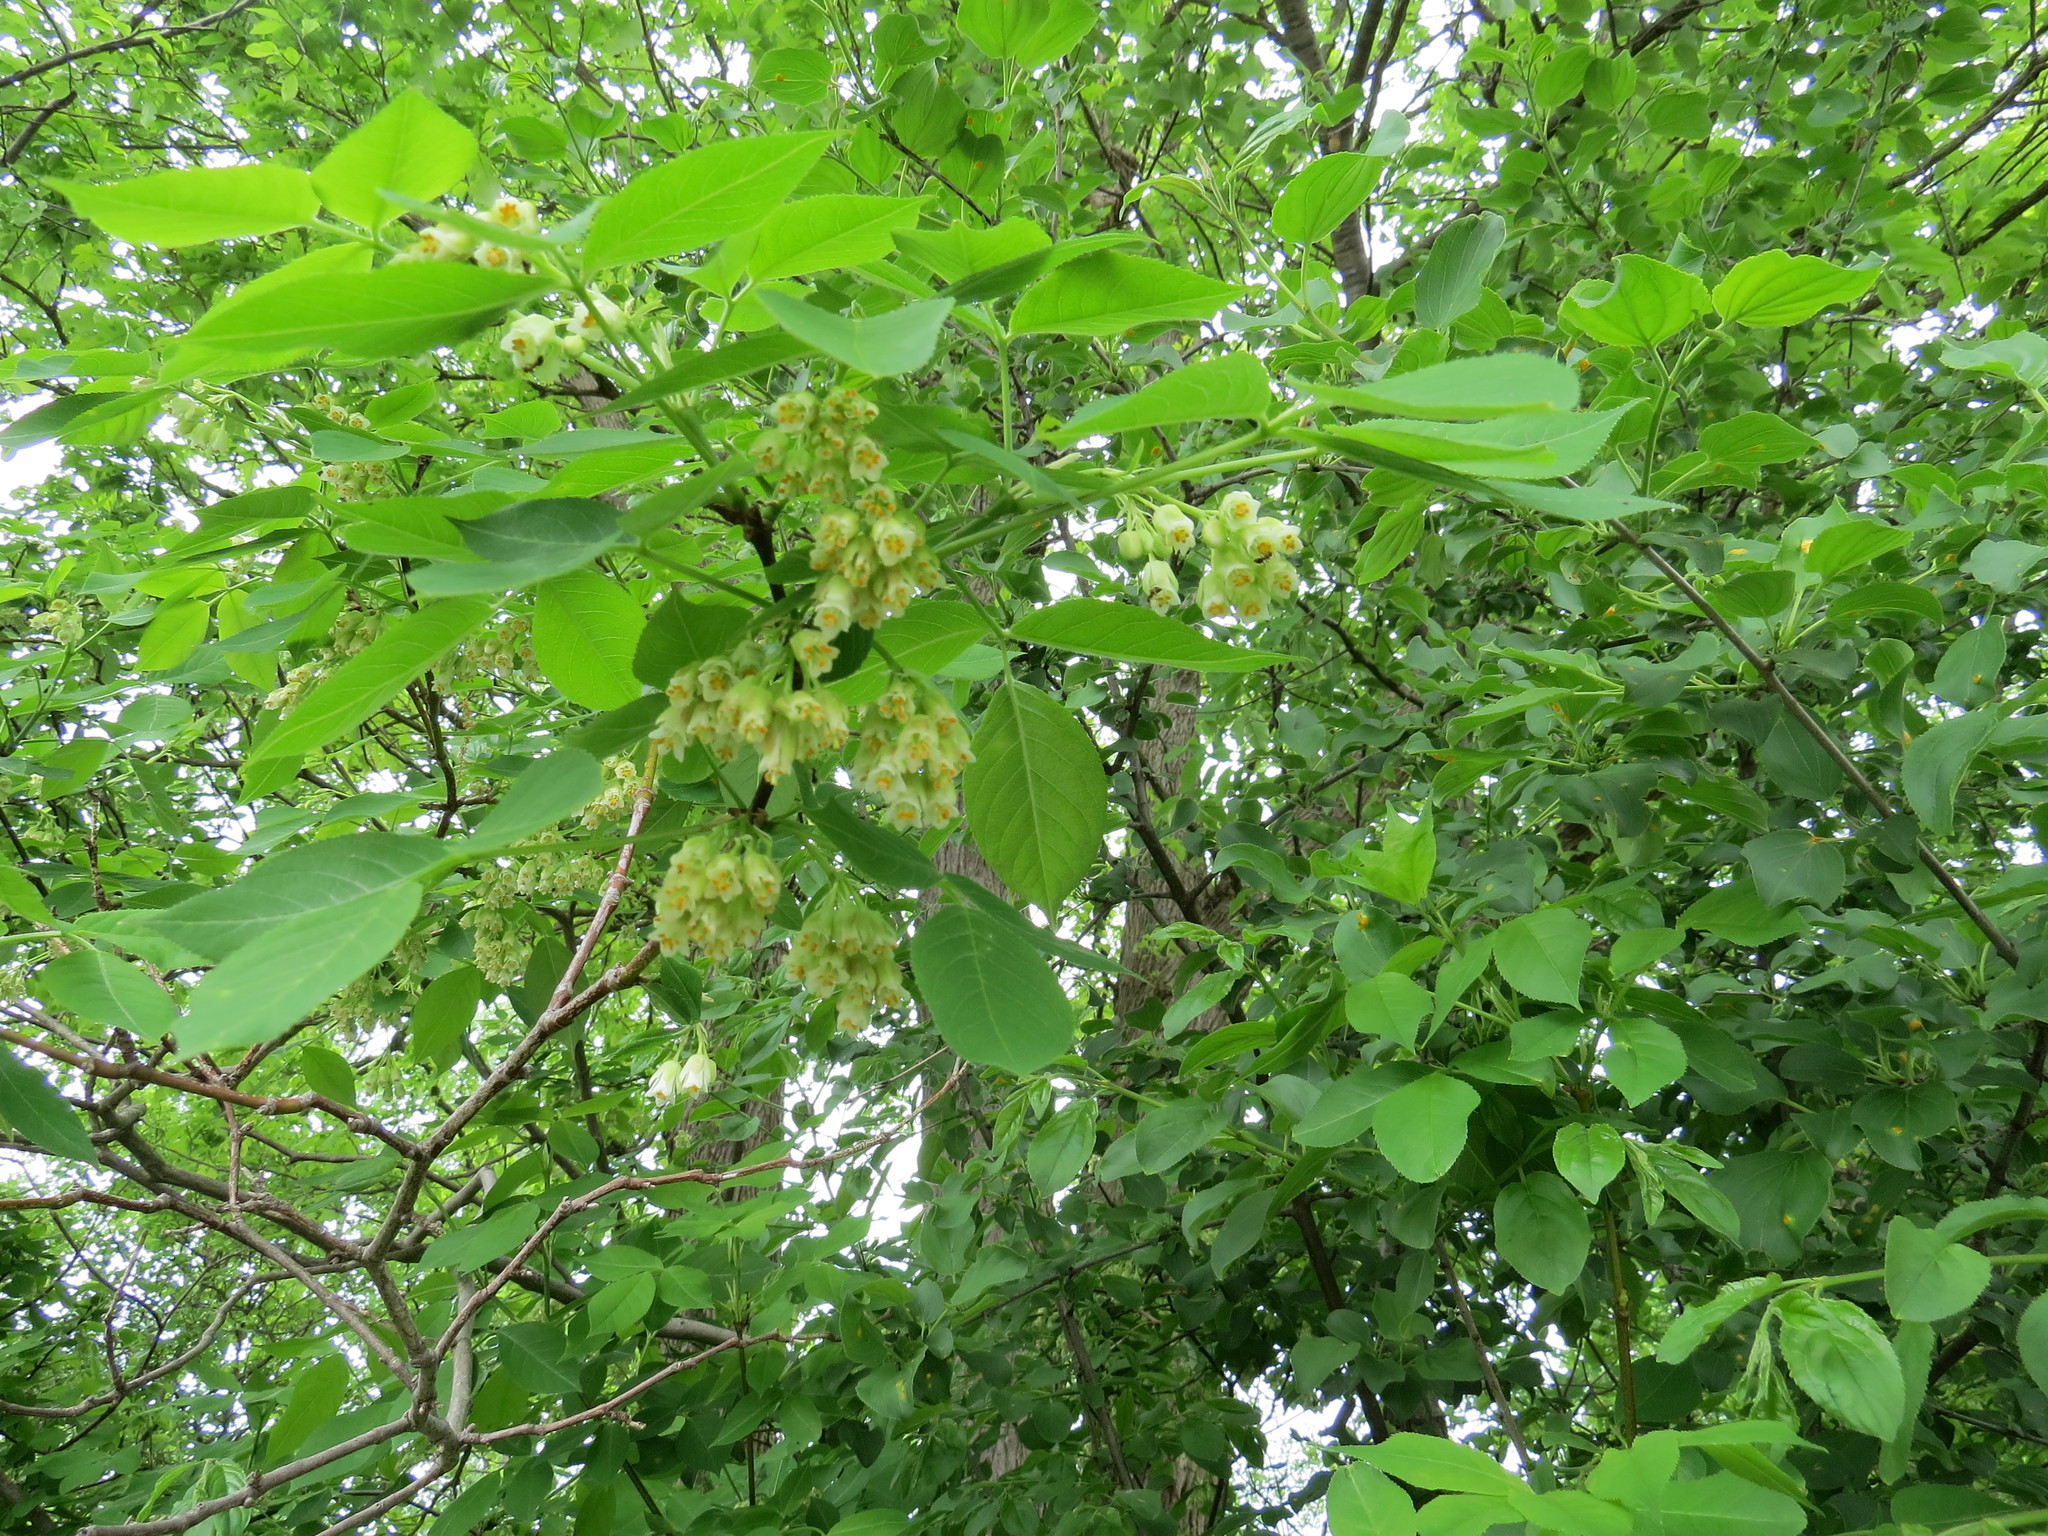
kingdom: Plantae
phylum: Tracheophyta
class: Magnoliopsida
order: Crossosomatales
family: Staphyleaceae
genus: Staphylea
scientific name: Staphylea trifolia
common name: American bladdernut
